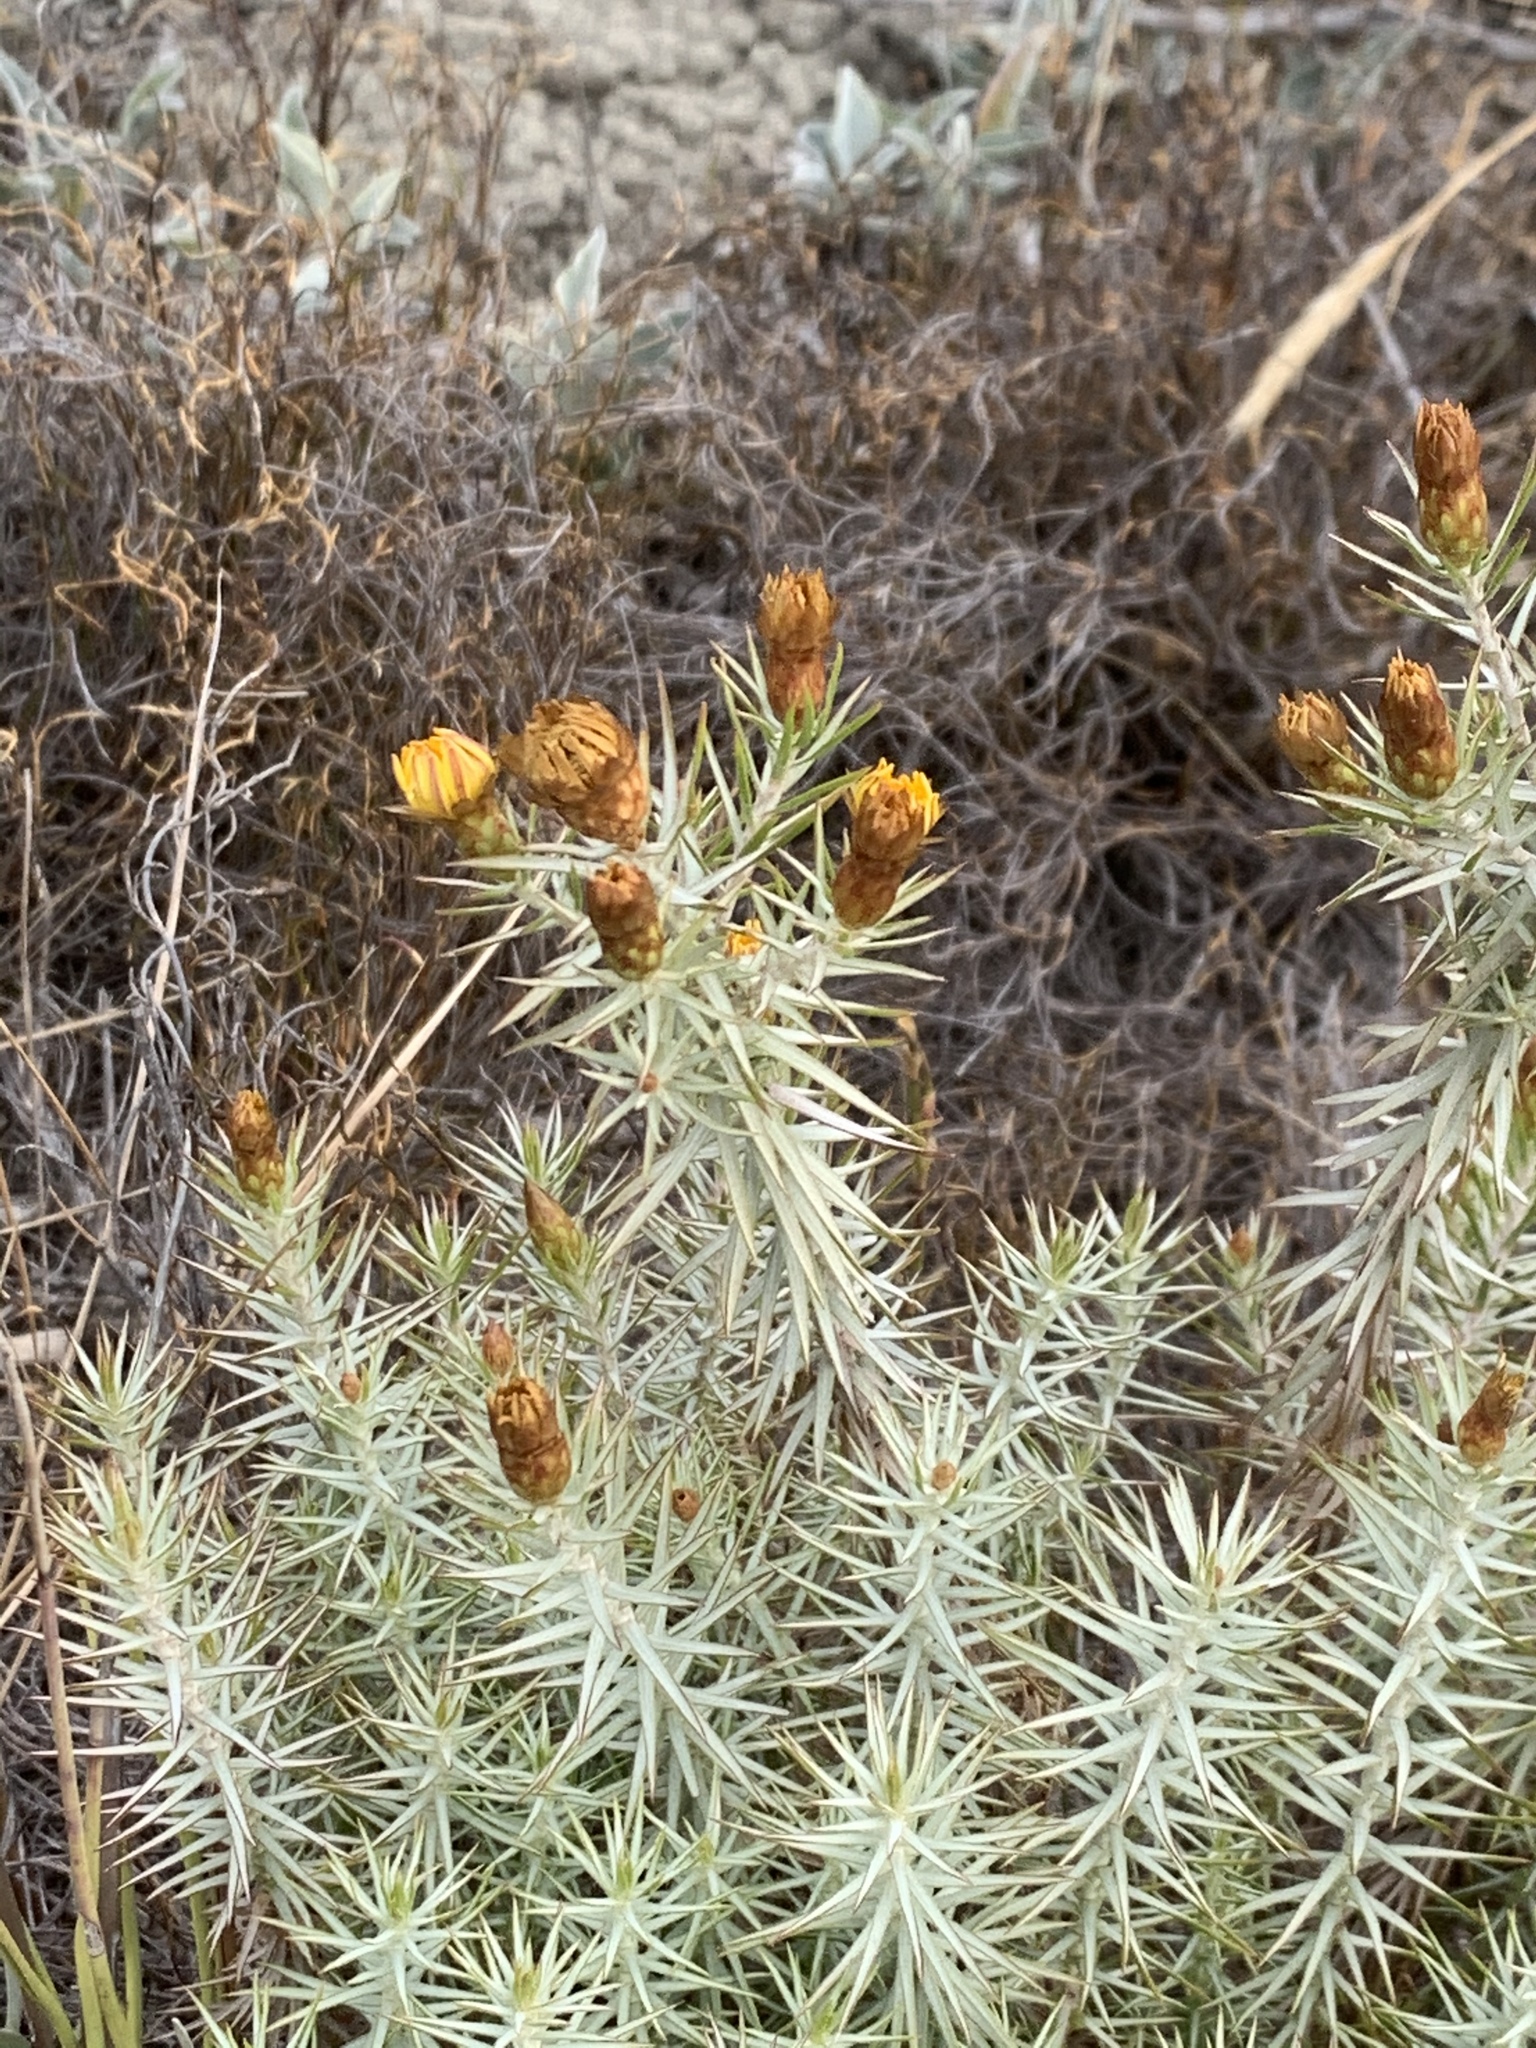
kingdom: Plantae
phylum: Tracheophyta
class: Magnoliopsida
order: Asterales
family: Asteraceae
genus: Oedera
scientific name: Oedera pungens
